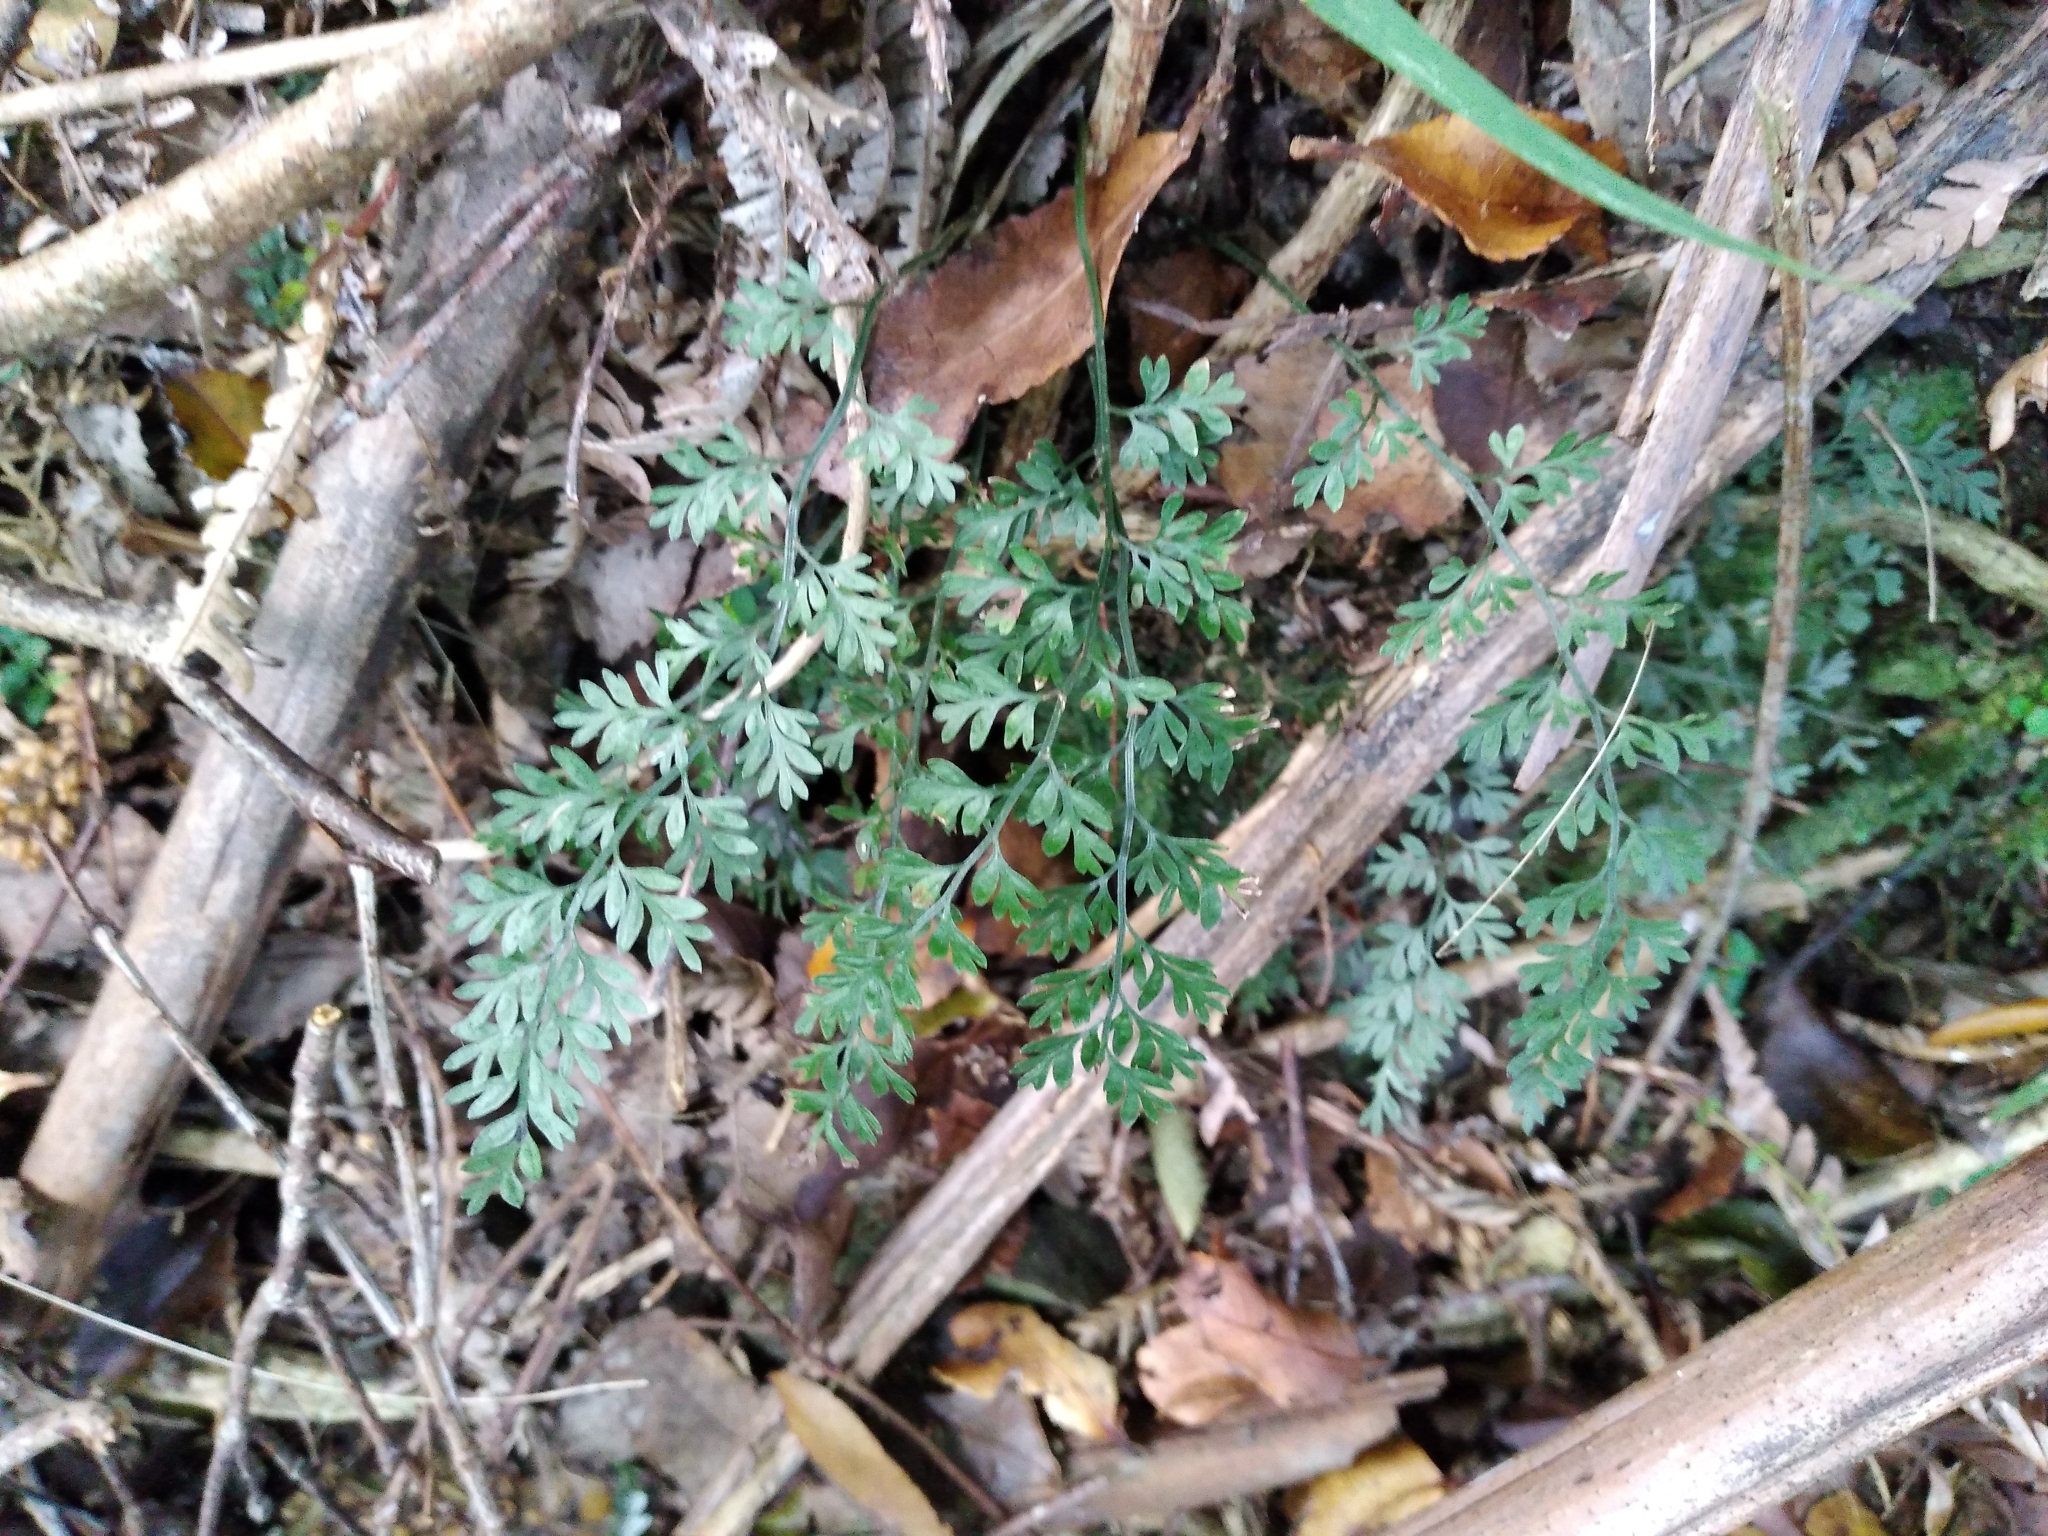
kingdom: Plantae
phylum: Tracheophyta
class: Polypodiopsida
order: Polypodiales
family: Aspleniaceae
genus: Asplenium
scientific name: Asplenium hookerianum
